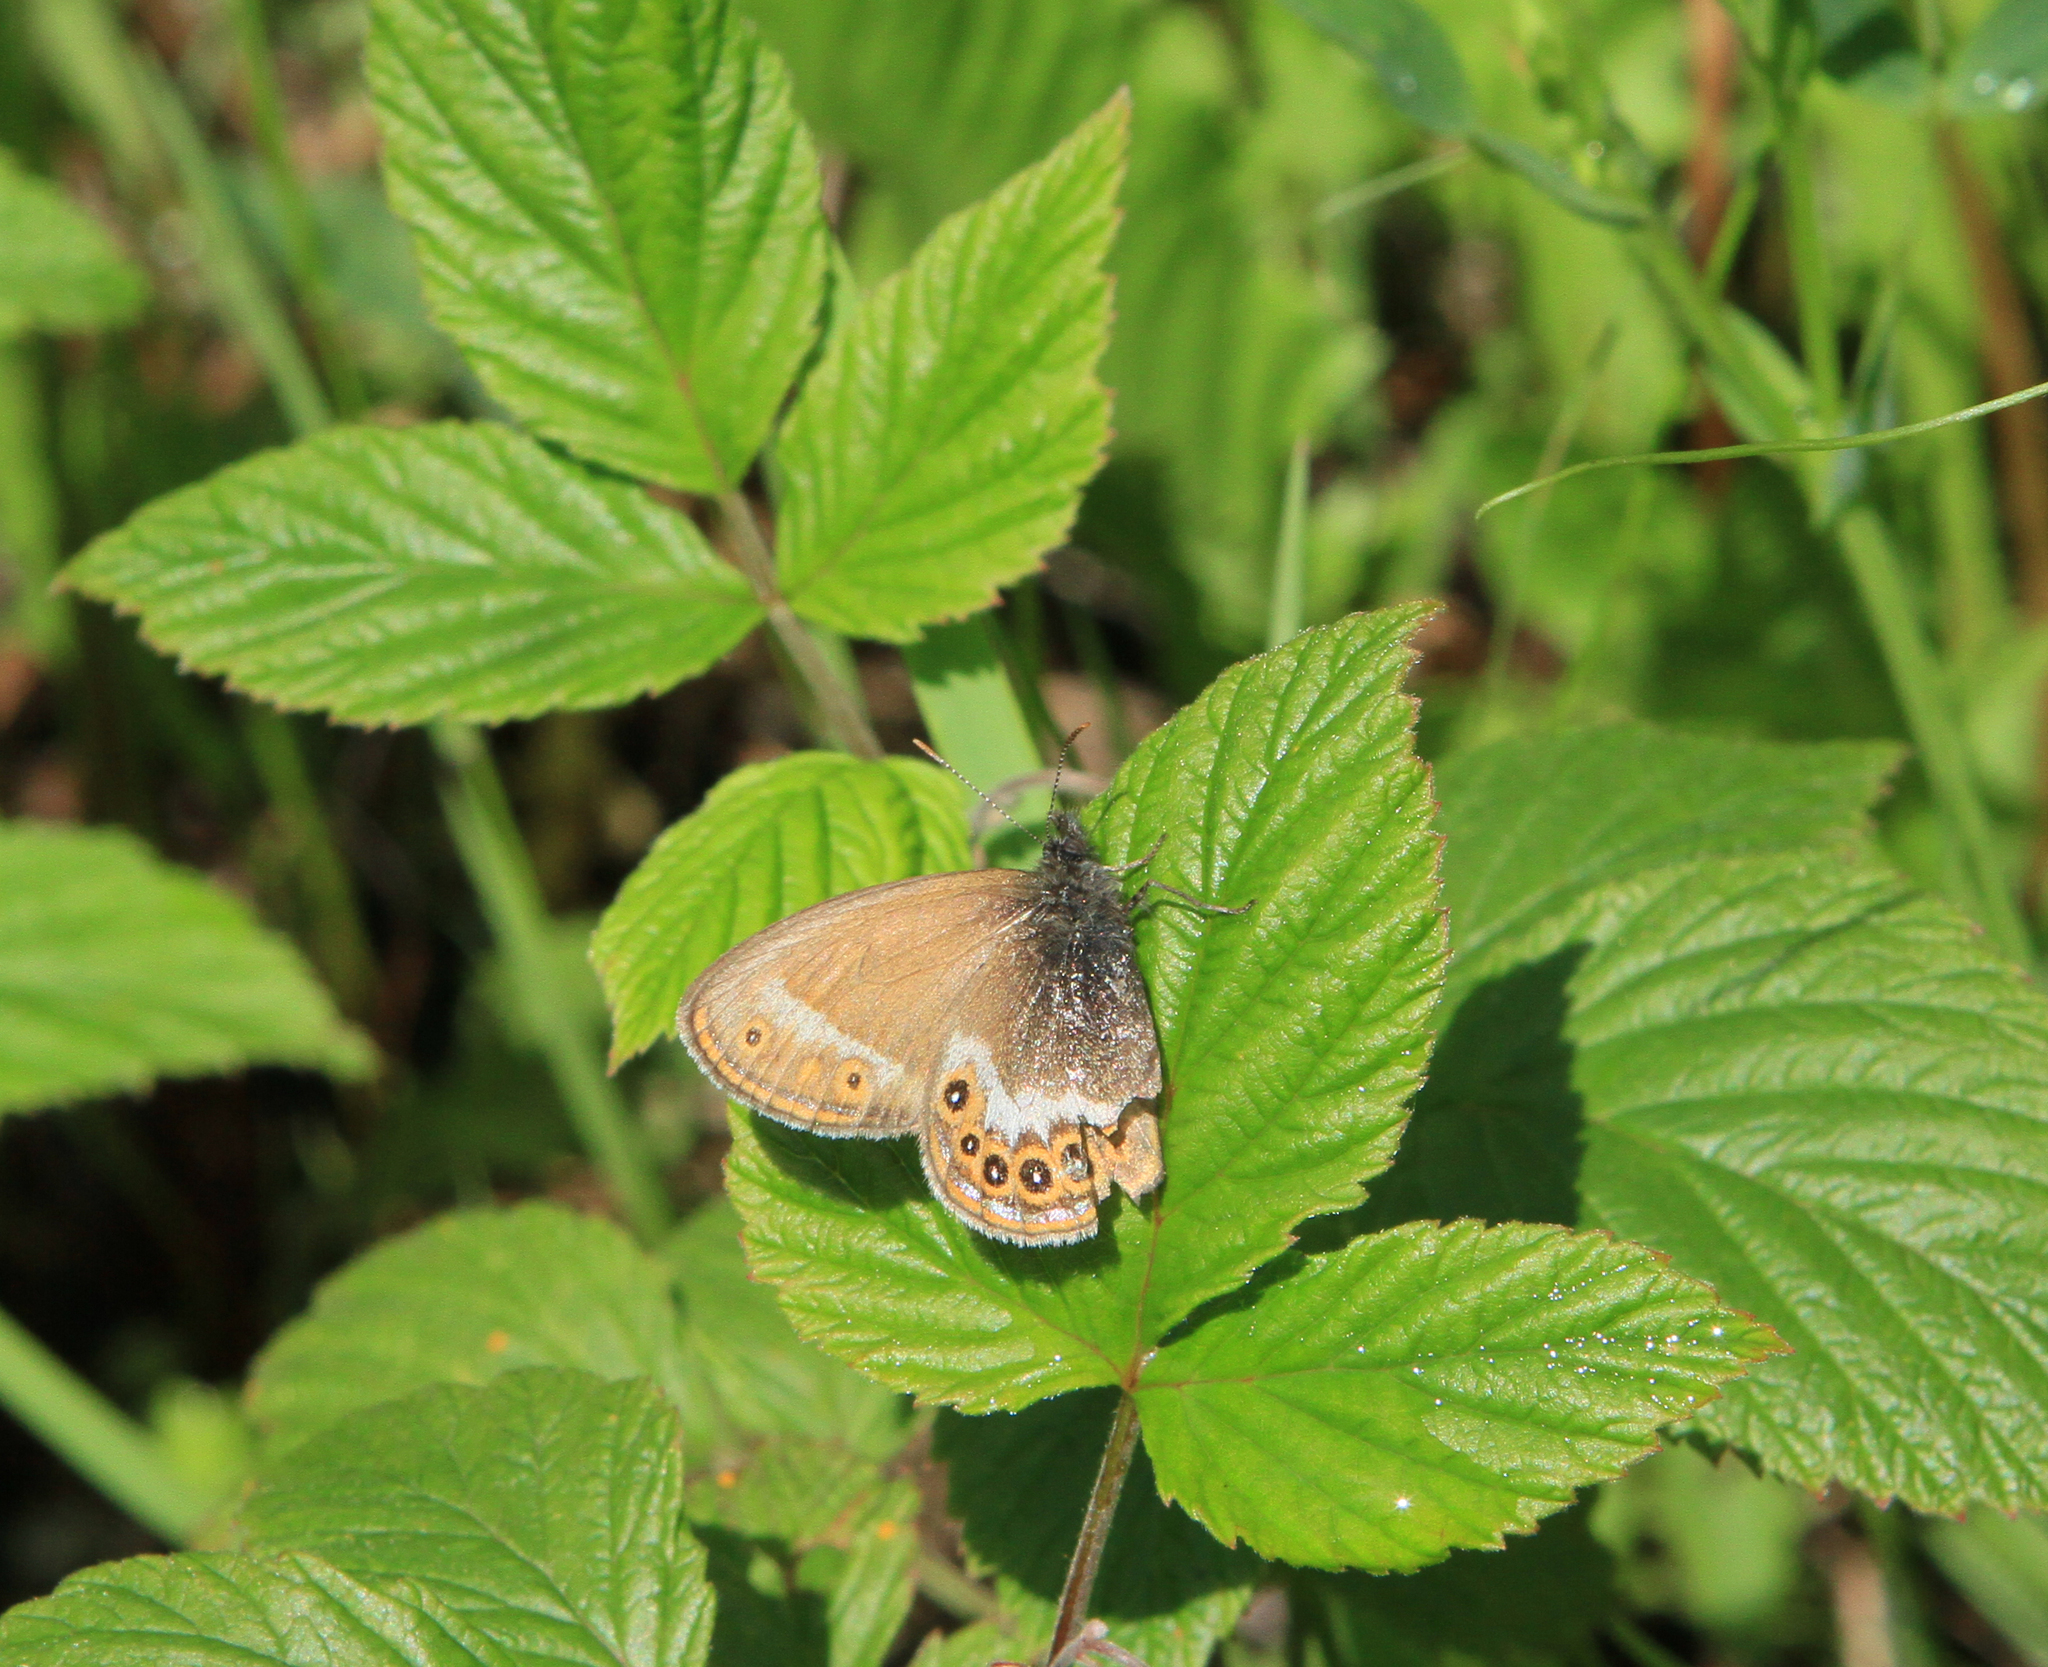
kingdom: Animalia
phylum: Arthropoda
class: Insecta
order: Lepidoptera
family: Nymphalidae
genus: Coenonympha
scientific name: Coenonympha hero
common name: Scarce heath
